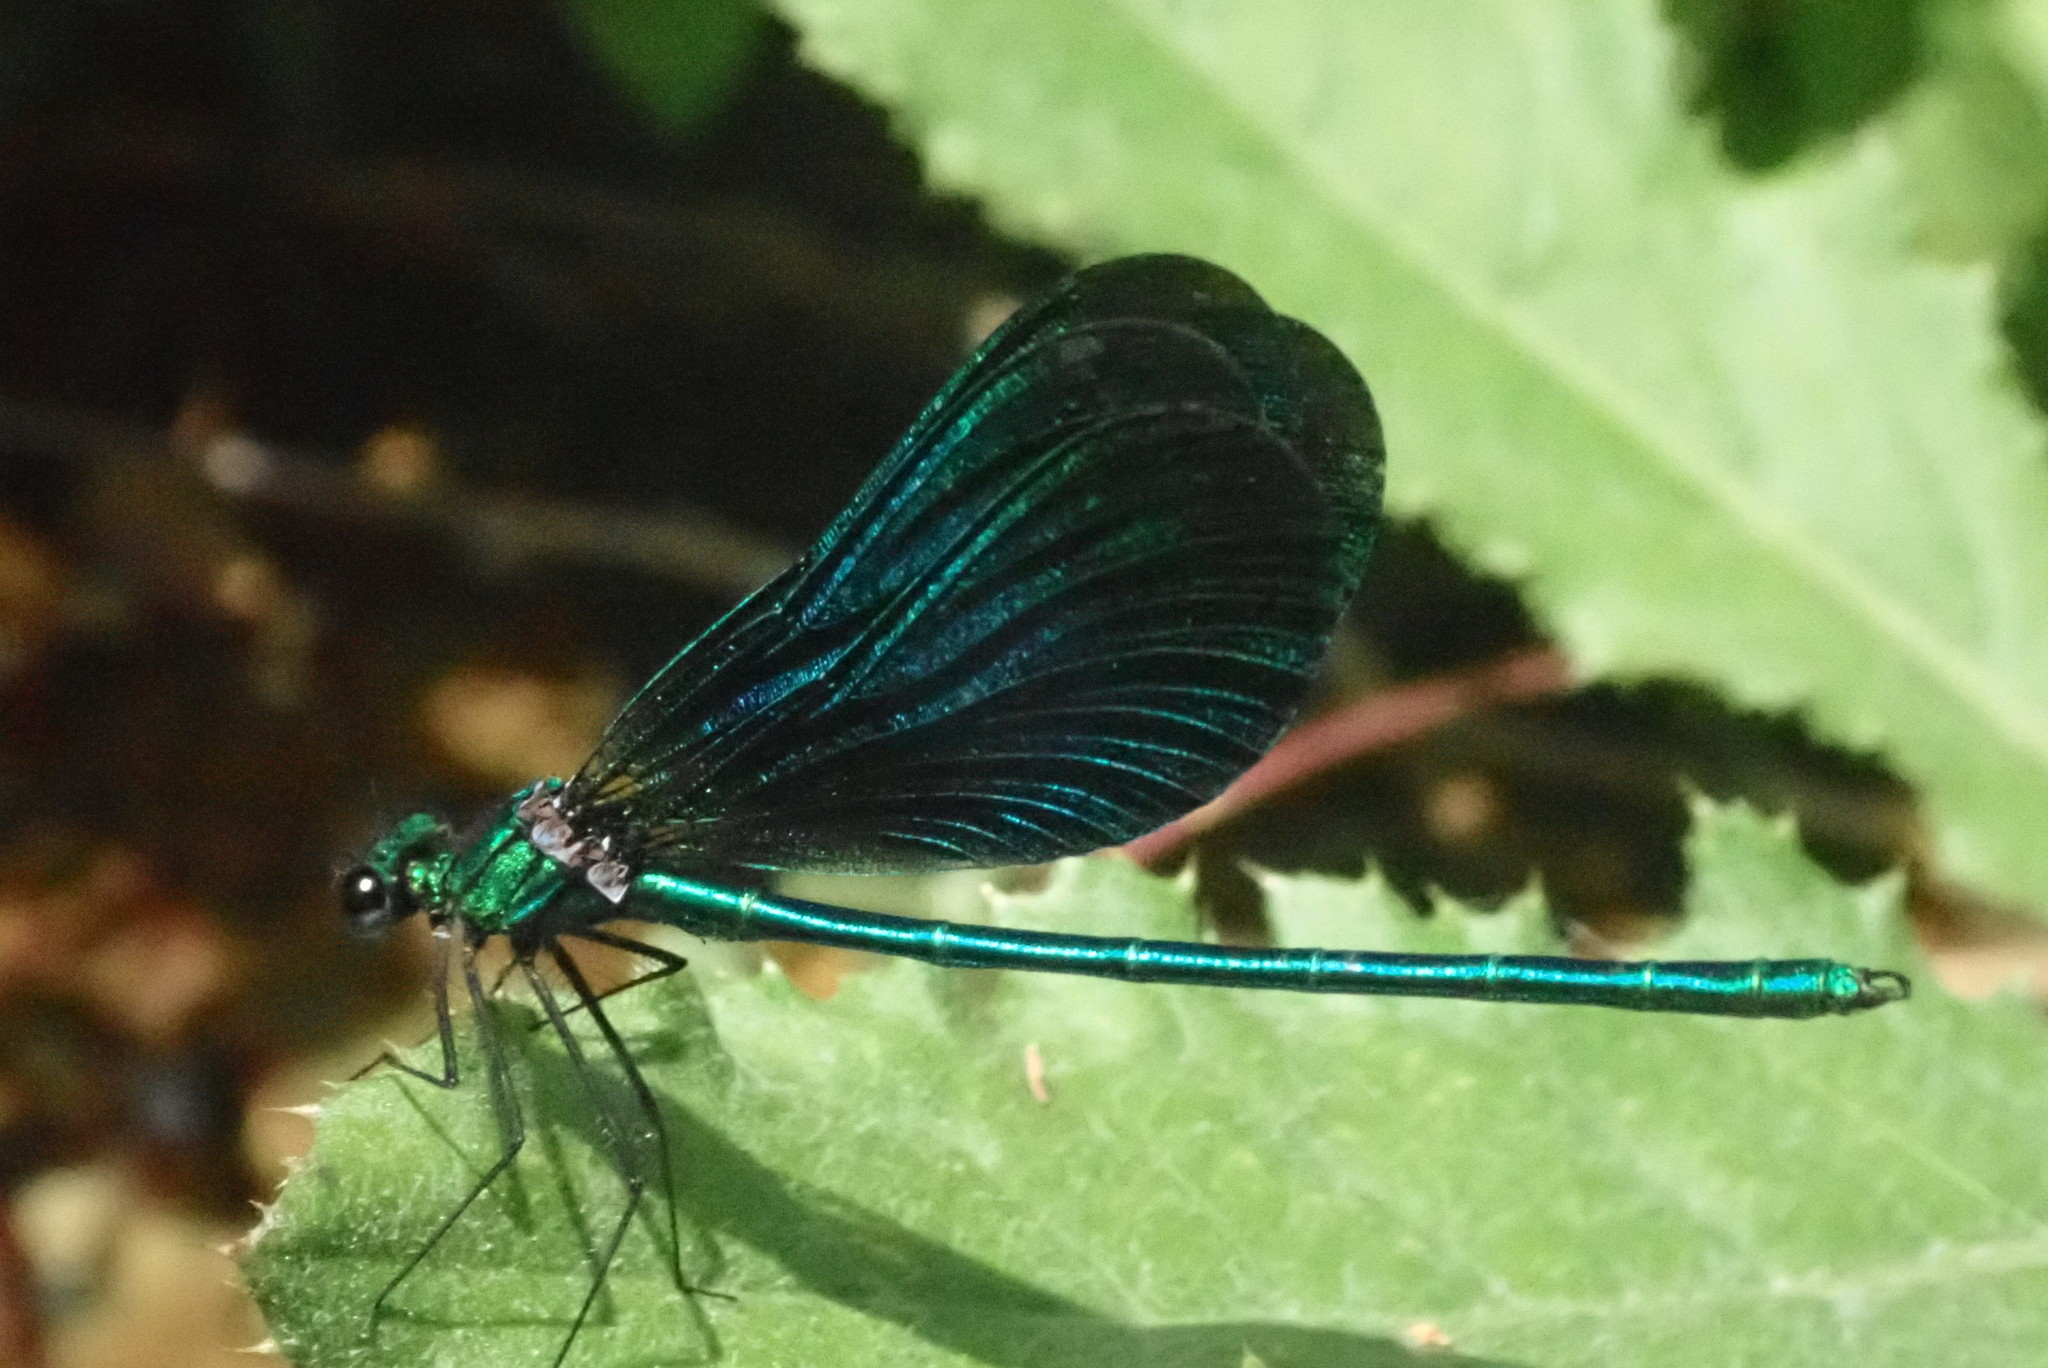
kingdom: Animalia
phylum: Arthropoda
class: Insecta
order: Odonata
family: Calopterygidae
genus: Calopteryx
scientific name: Calopteryx virgo
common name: Beautiful demoiselle
